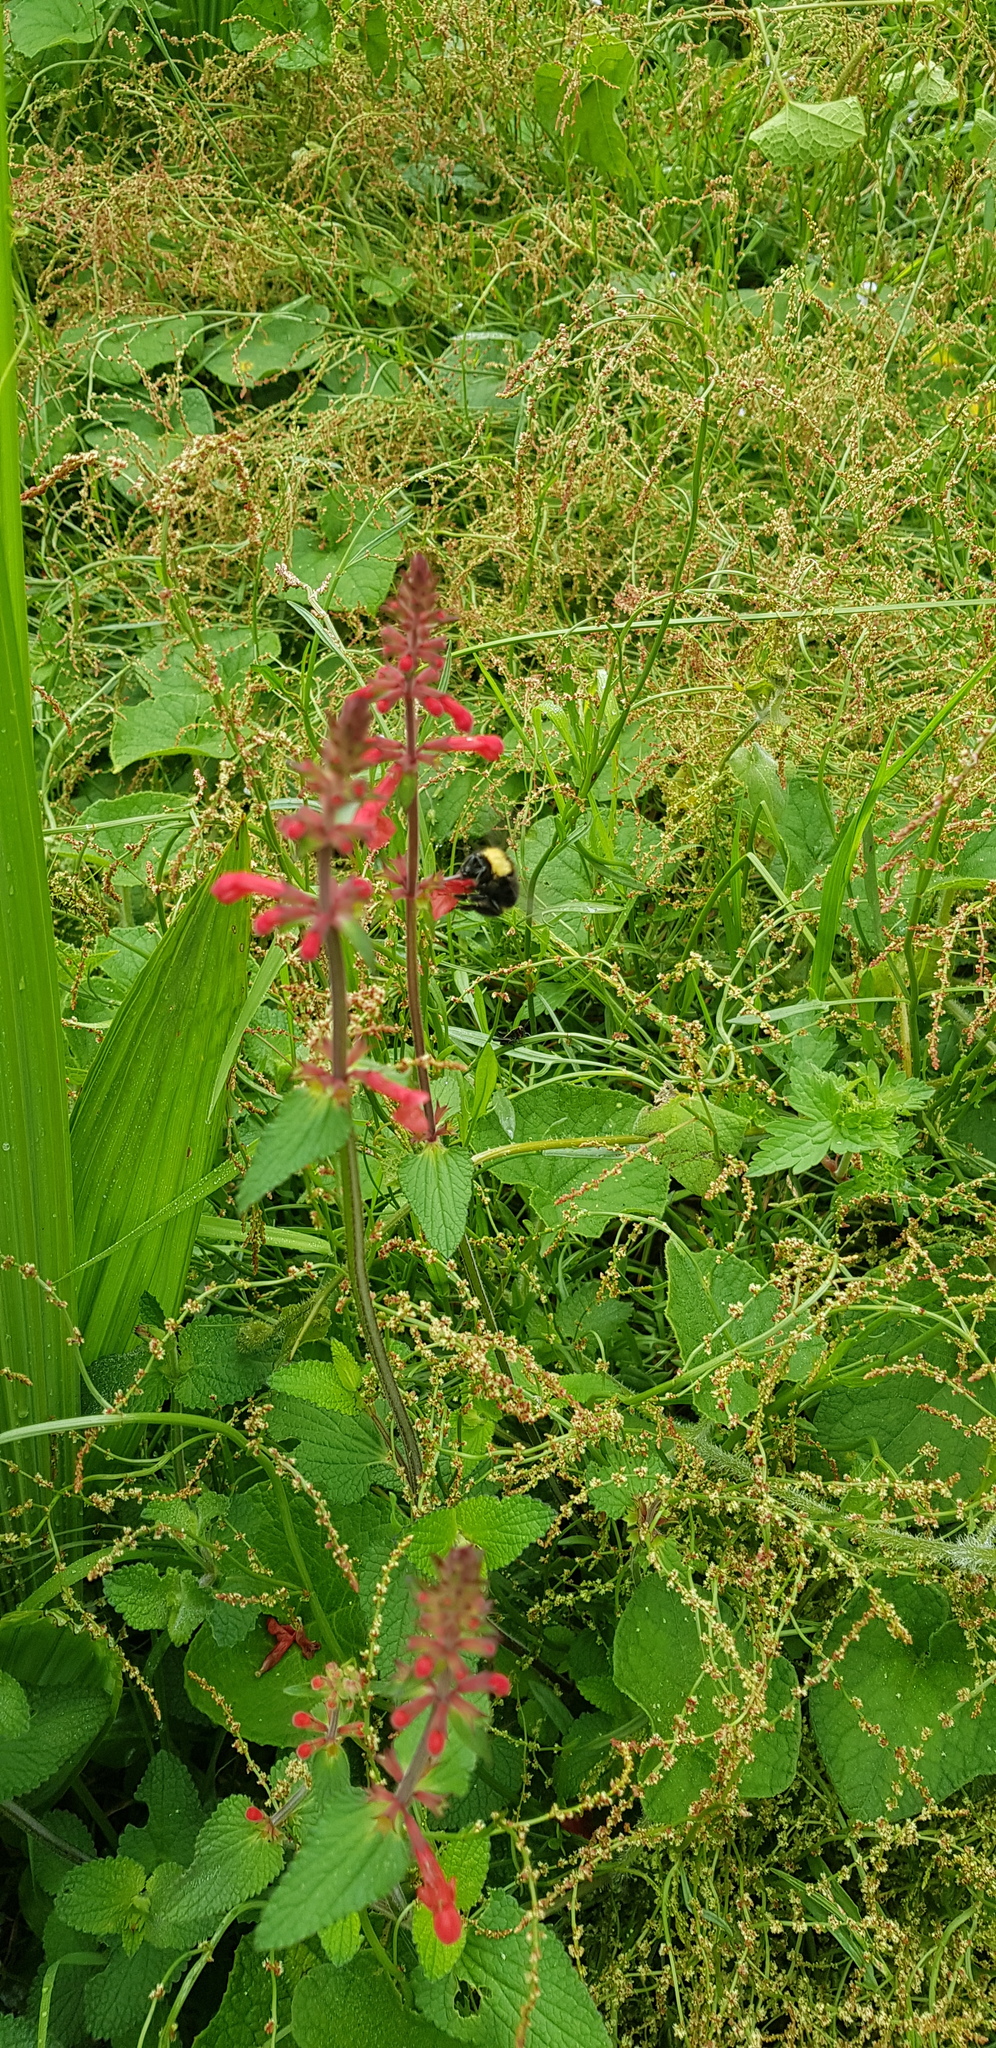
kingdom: Animalia
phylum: Arthropoda
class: Insecta
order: Hymenoptera
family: Apidae
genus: Bombus
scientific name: Bombus trinominatus
